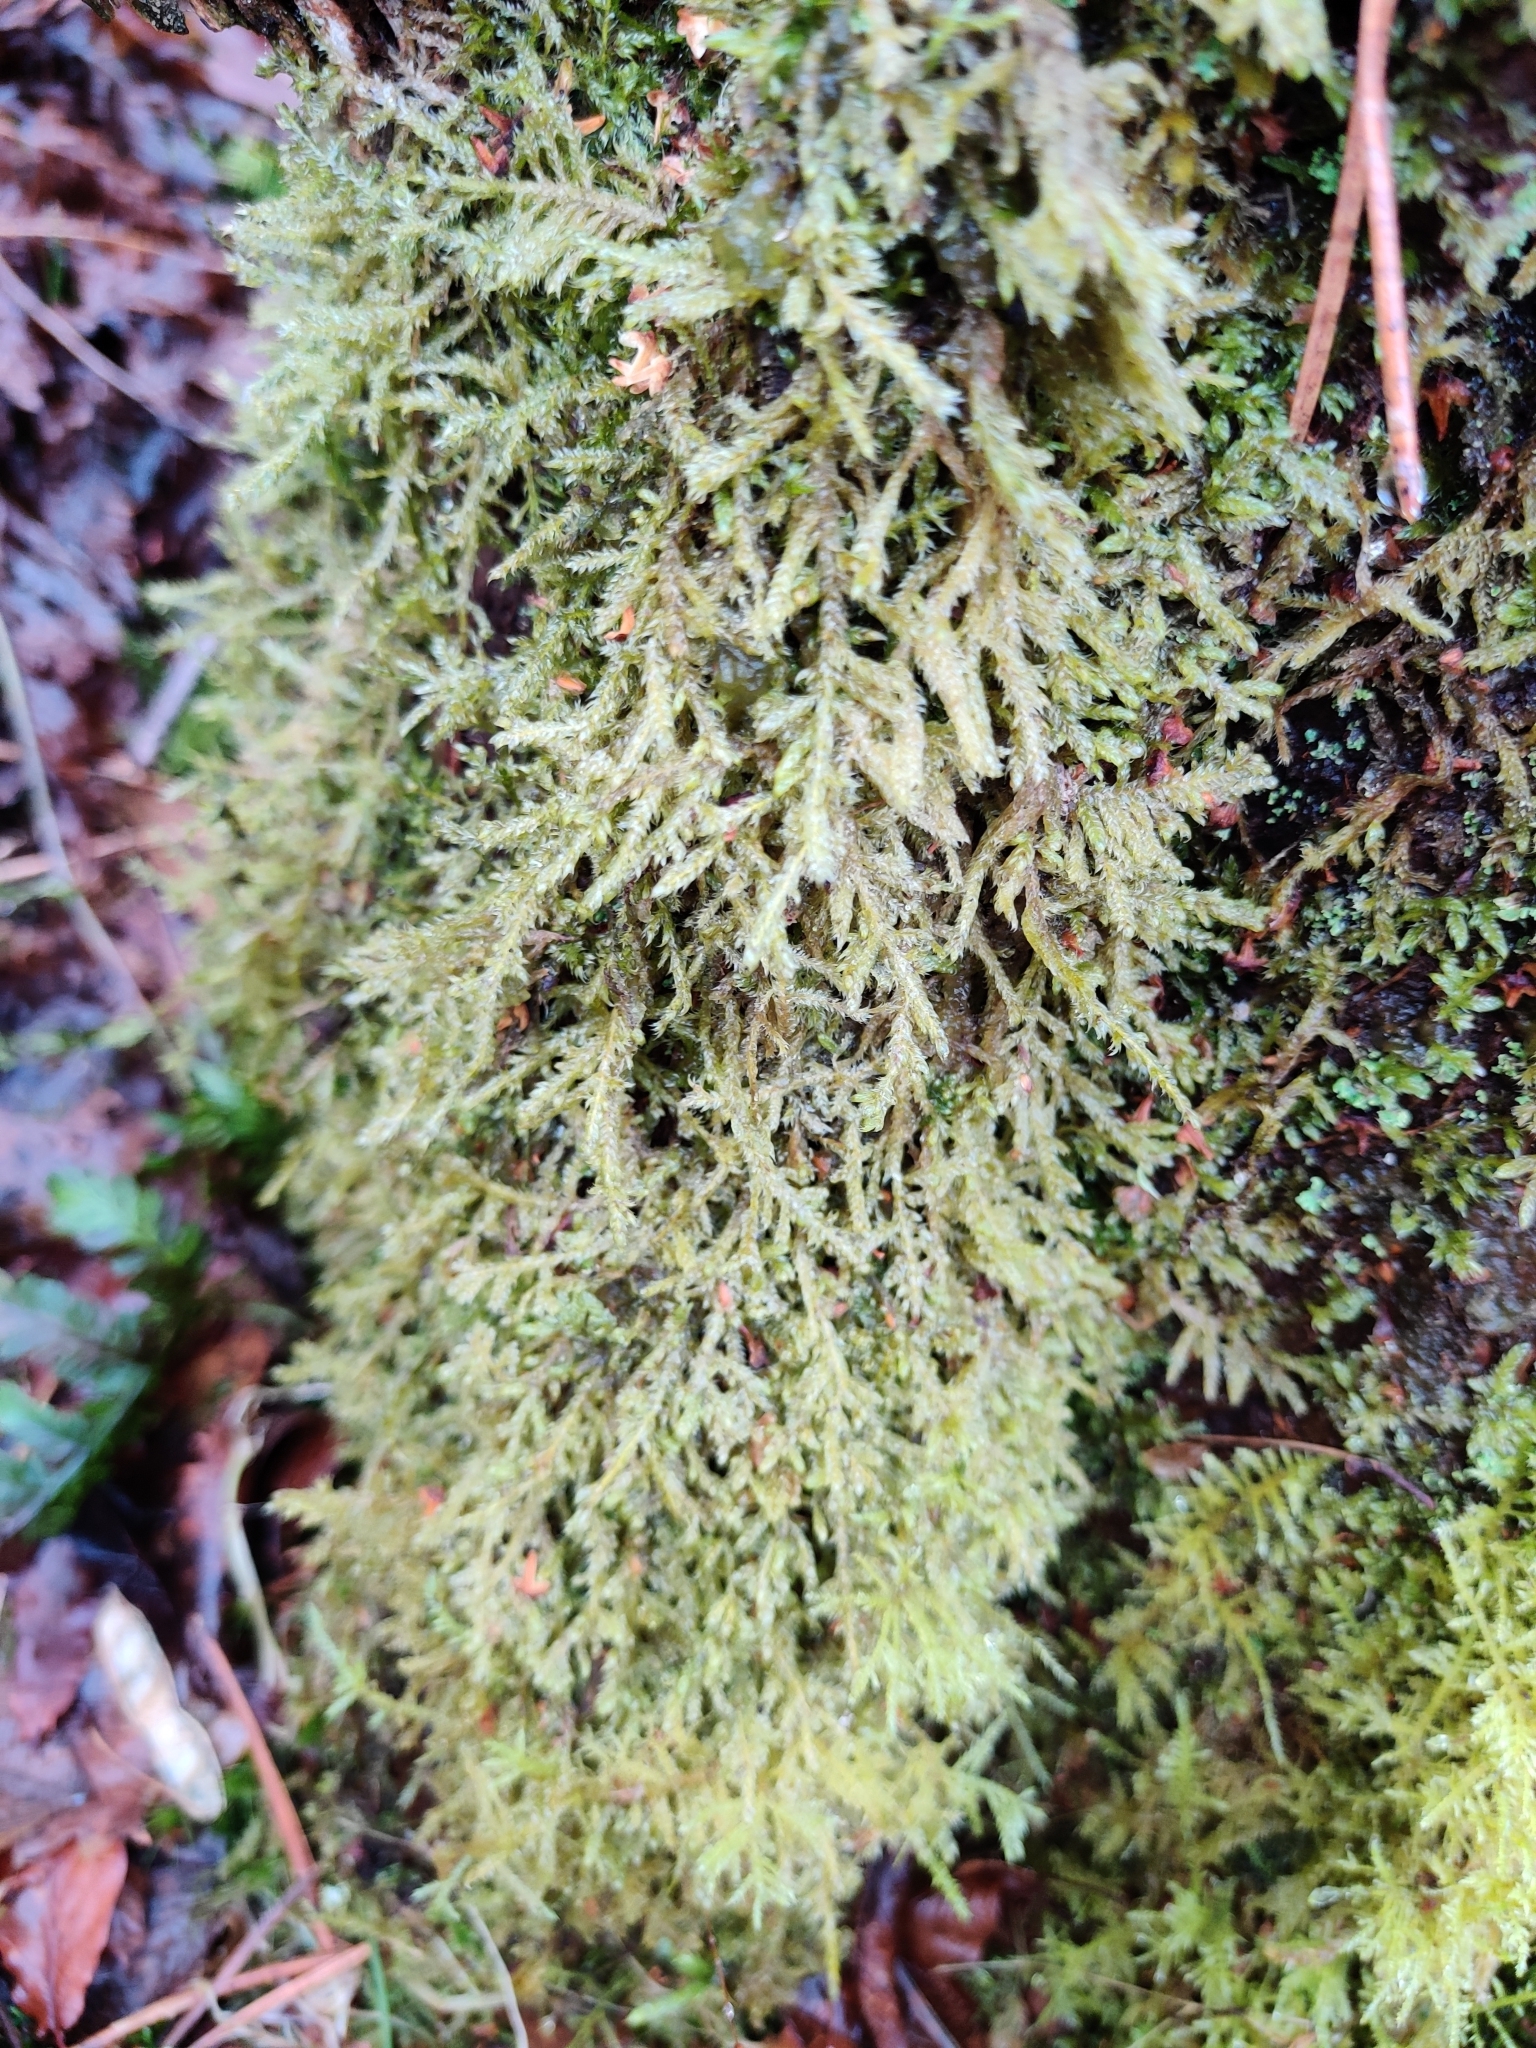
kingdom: Plantae
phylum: Bryophyta
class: Bryopsida
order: Hypnales
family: Hypnaceae
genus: Hypnum
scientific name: Hypnum cupressiforme
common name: Cypress-leaved plait-moss
